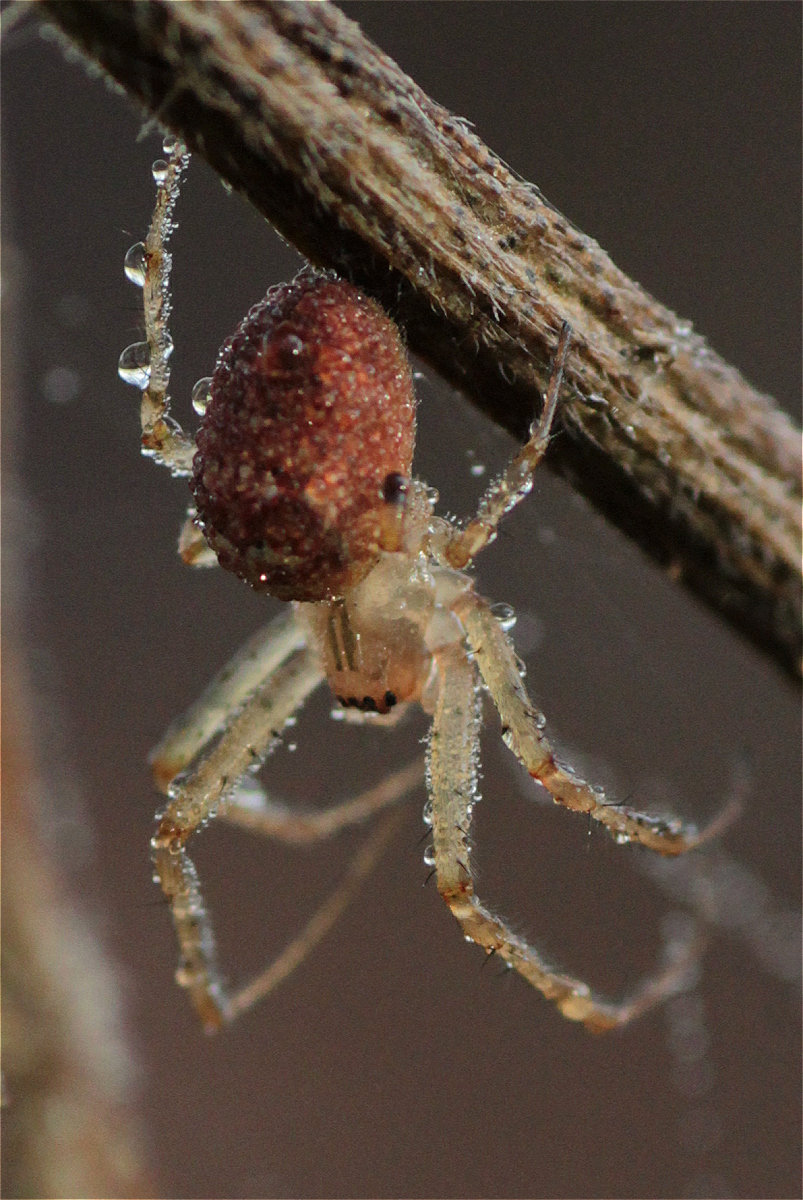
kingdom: Animalia
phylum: Arthropoda
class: Arachnida
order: Araneae
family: Tetragnathidae
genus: Metellina
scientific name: Metellina
